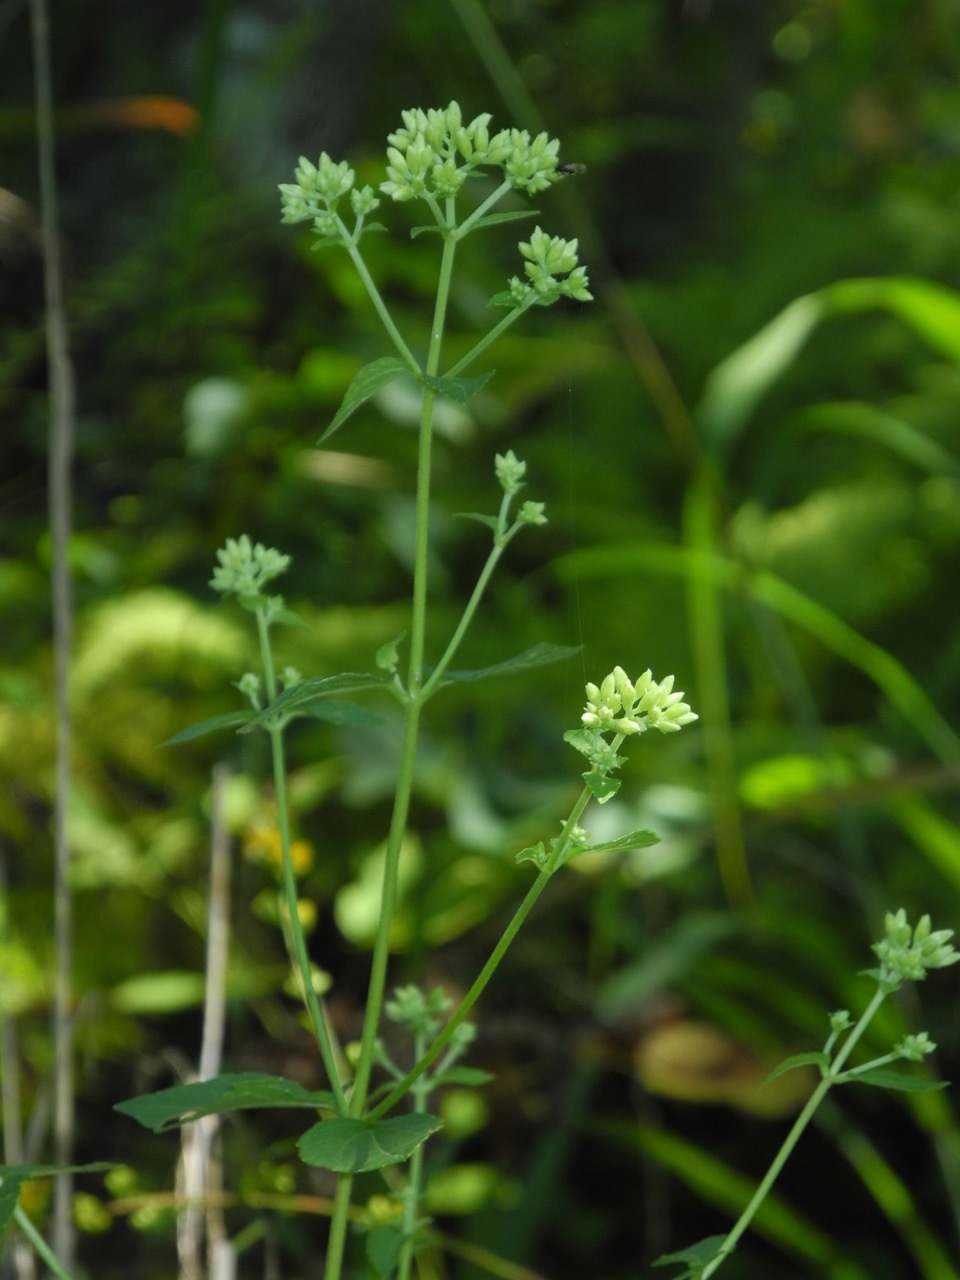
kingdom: Plantae
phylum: Tracheophyta
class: Magnoliopsida
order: Asterales
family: Asteraceae
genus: Ageratina
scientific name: Ageratina aromatica
